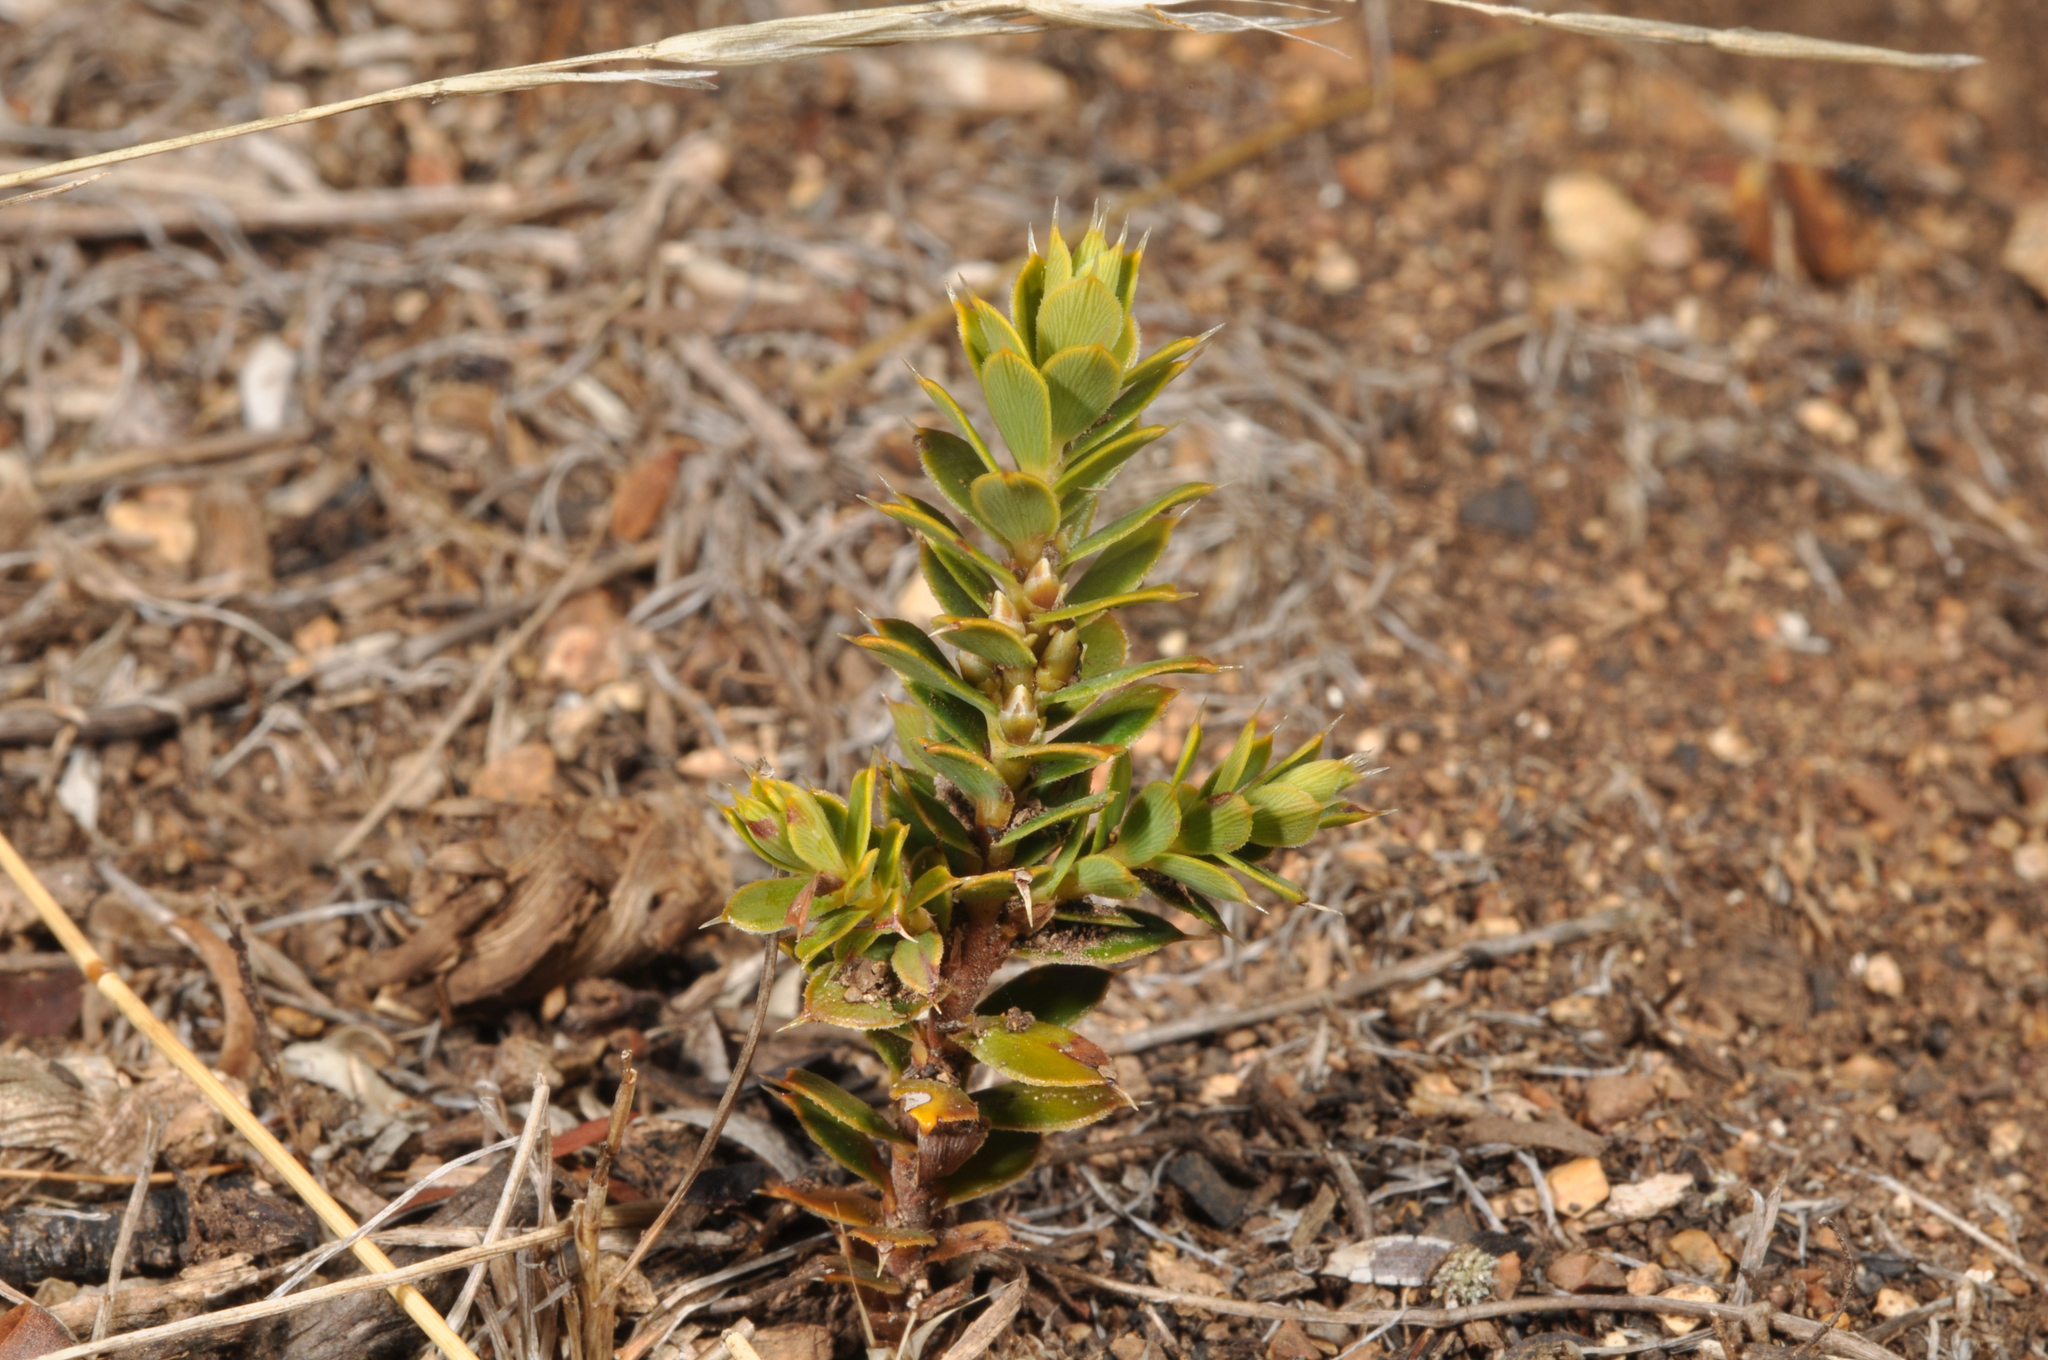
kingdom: Plantae
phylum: Tracheophyta
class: Magnoliopsida
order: Ericales
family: Ericaceae
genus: Styphelia
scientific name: Styphelia nesophila
